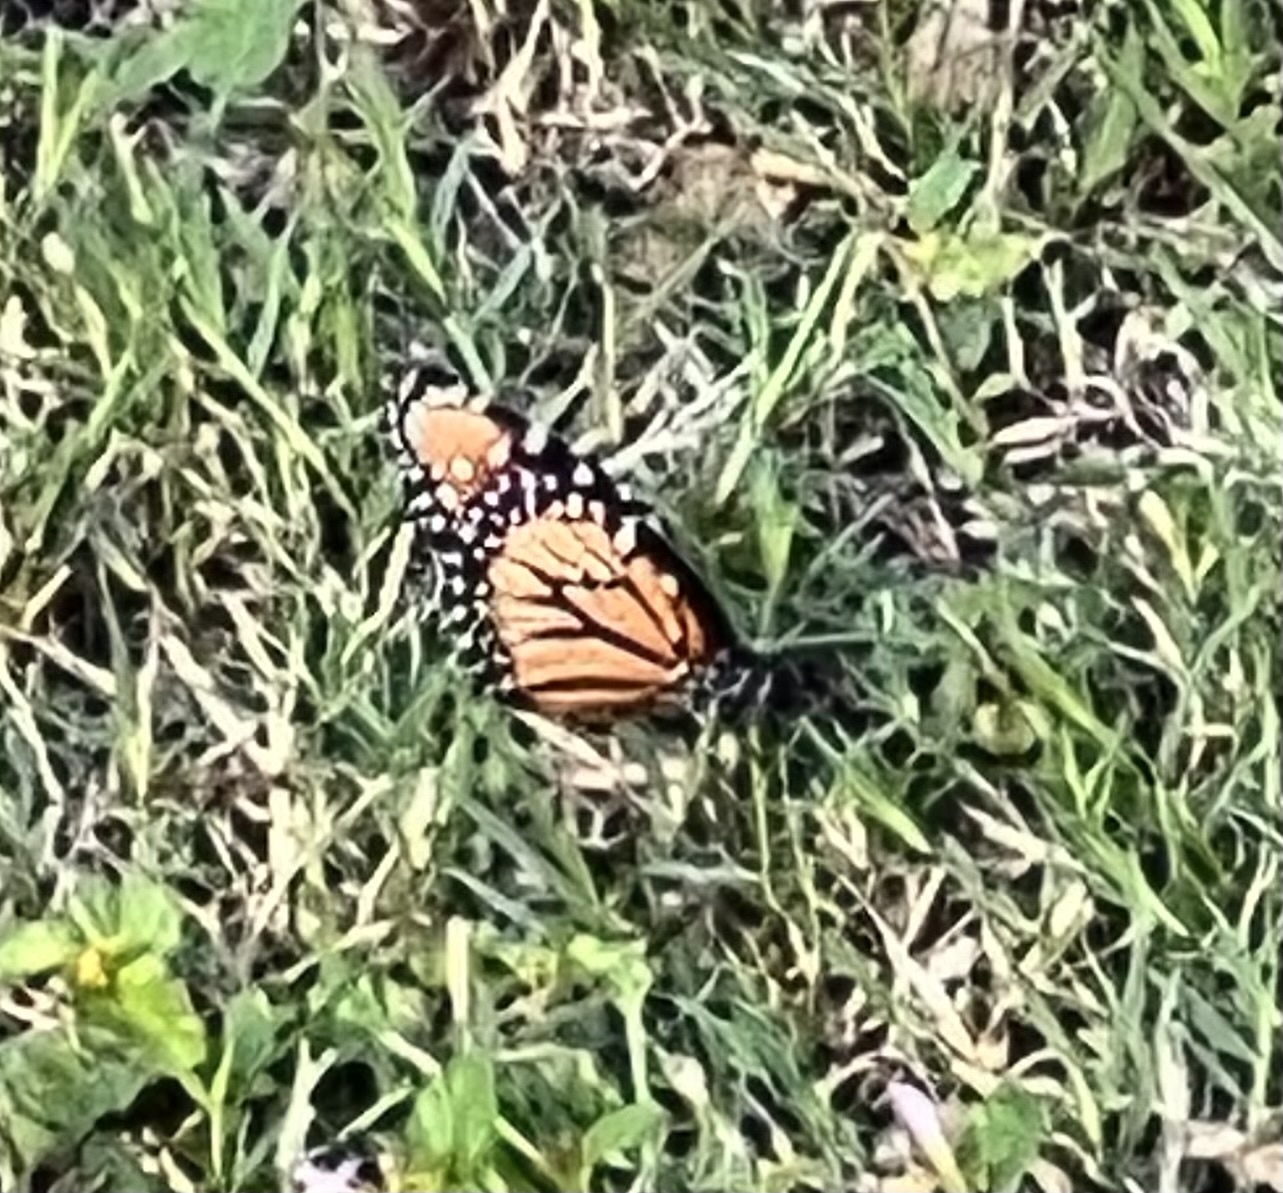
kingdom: Animalia
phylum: Arthropoda
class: Insecta
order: Lepidoptera
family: Nymphalidae
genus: Danaus
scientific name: Danaus gilippus
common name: Queen
